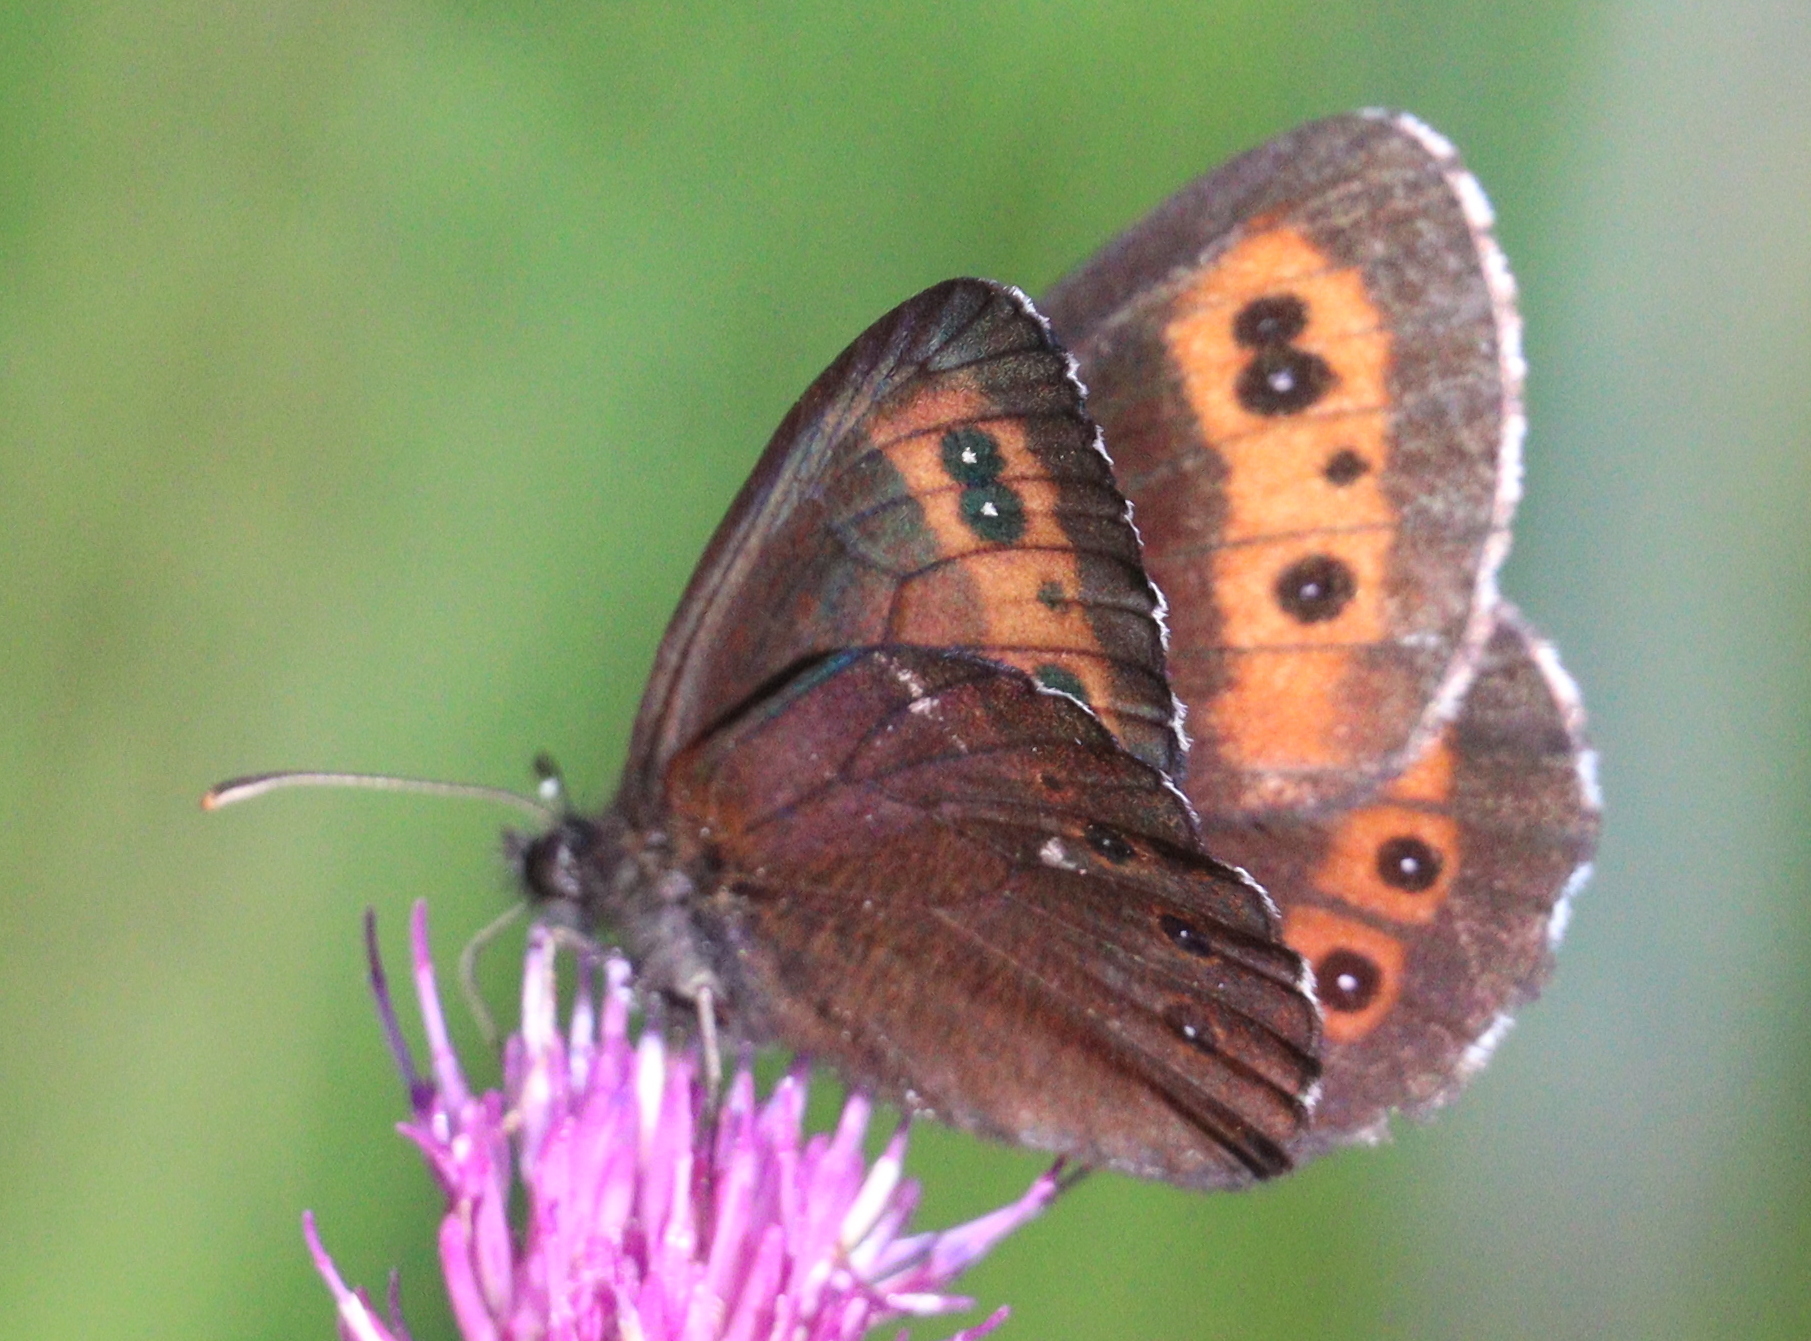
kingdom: Animalia
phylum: Arthropoda
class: Insecta
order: Lepidoptera
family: Nymphalidae
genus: Erebia
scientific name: Erebia ligea
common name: Arran brown
